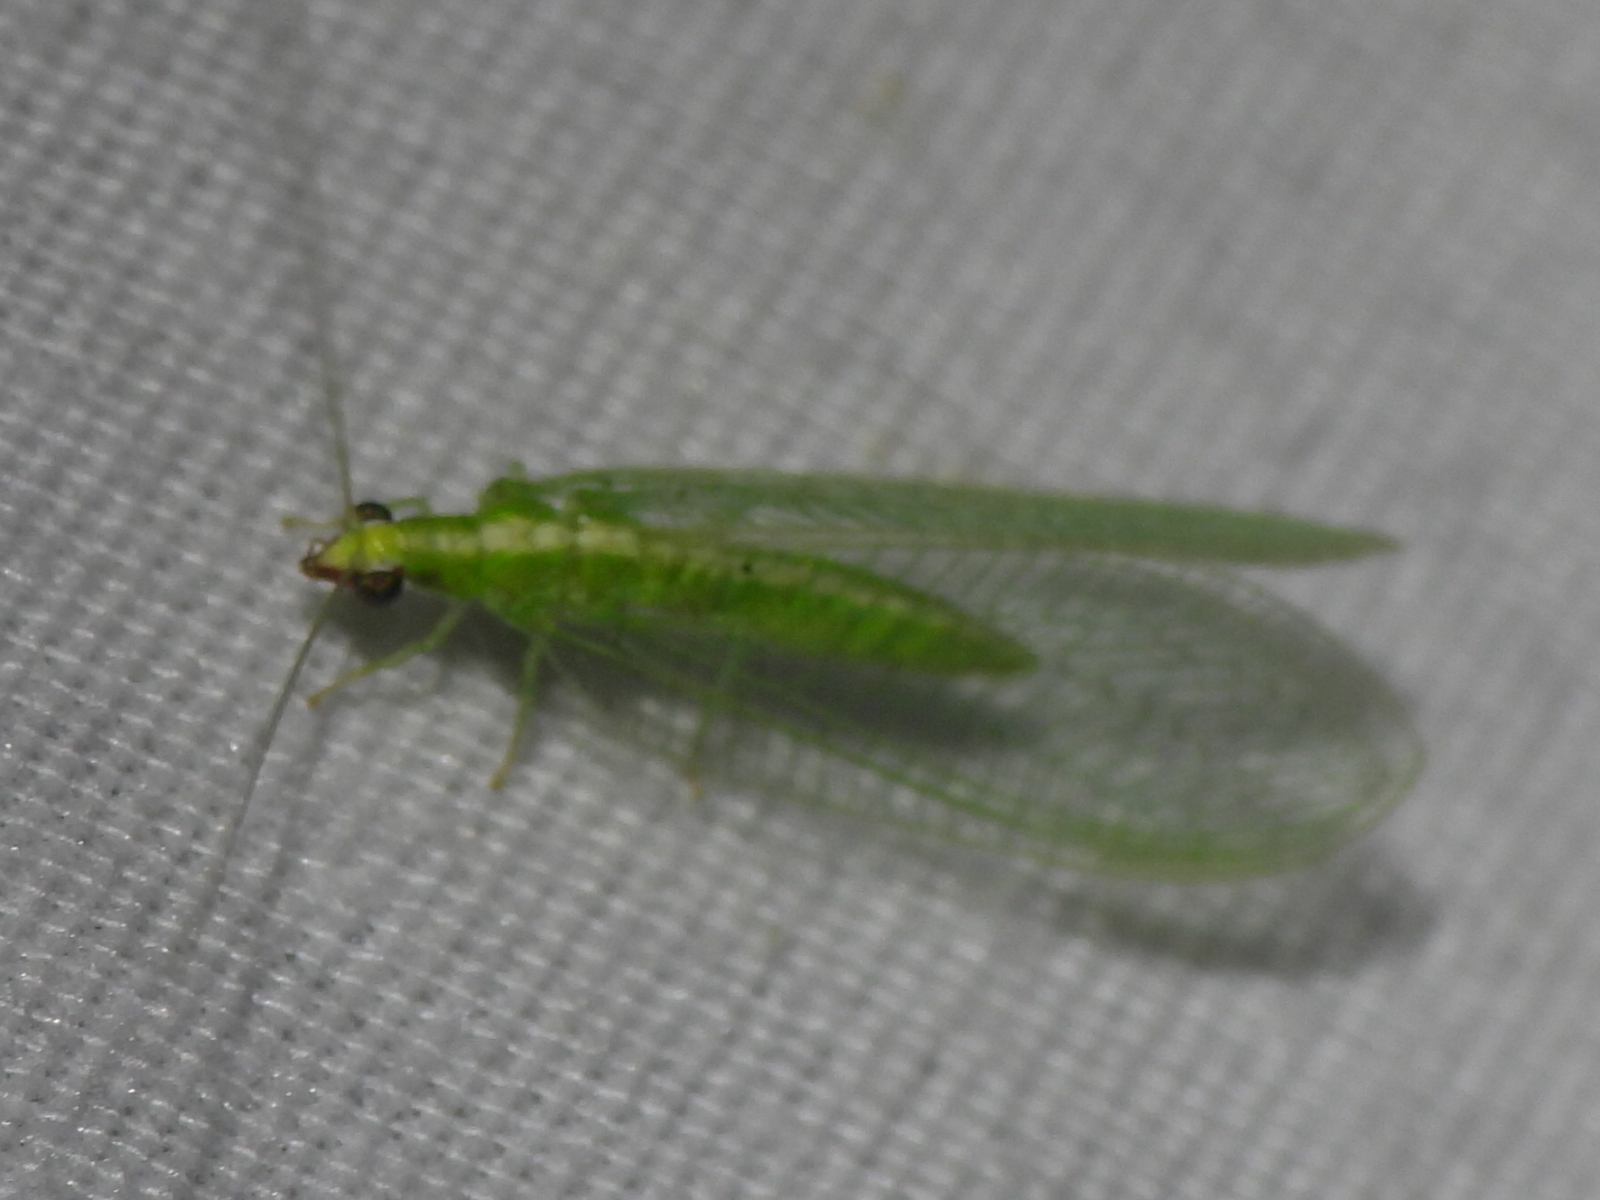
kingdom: Animalia
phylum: Arthropoda
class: Insecta
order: Neuroptera
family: Chrysopidae
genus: Chrysoperla
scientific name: Chrysoperla rufilabris
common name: Red-lipped green lacewing
